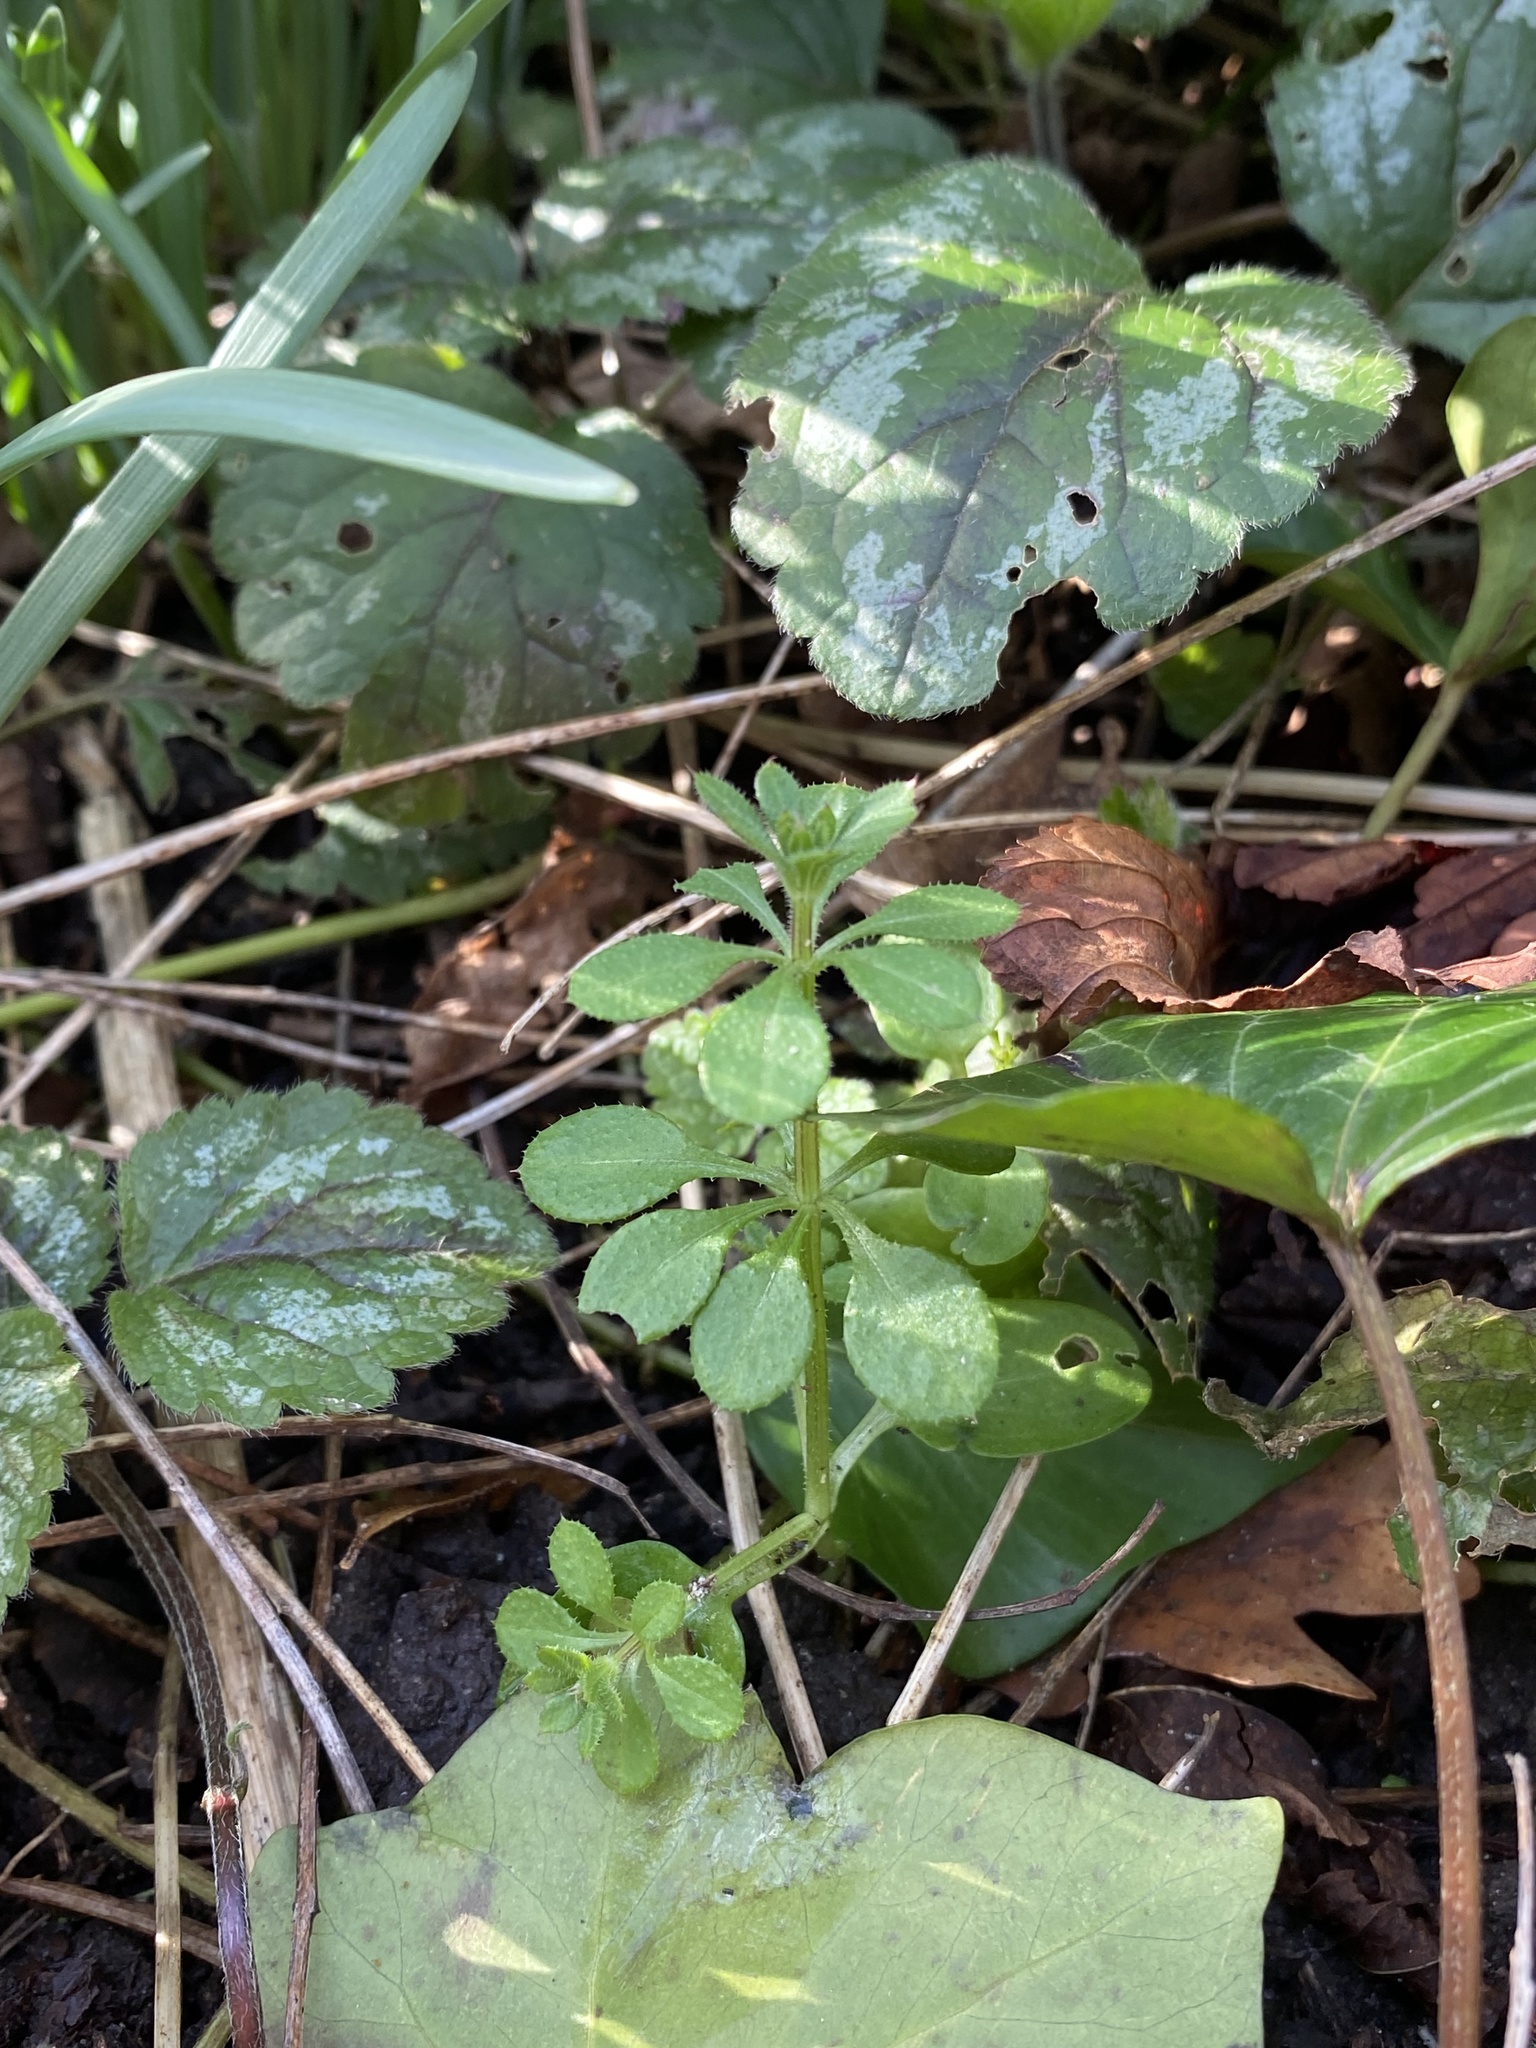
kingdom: Plantae
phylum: Tracheophyta
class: Magnoliopsida
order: Gentianales
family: Rubiaceae
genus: Galium
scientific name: Galium aparine
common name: Cleavers
